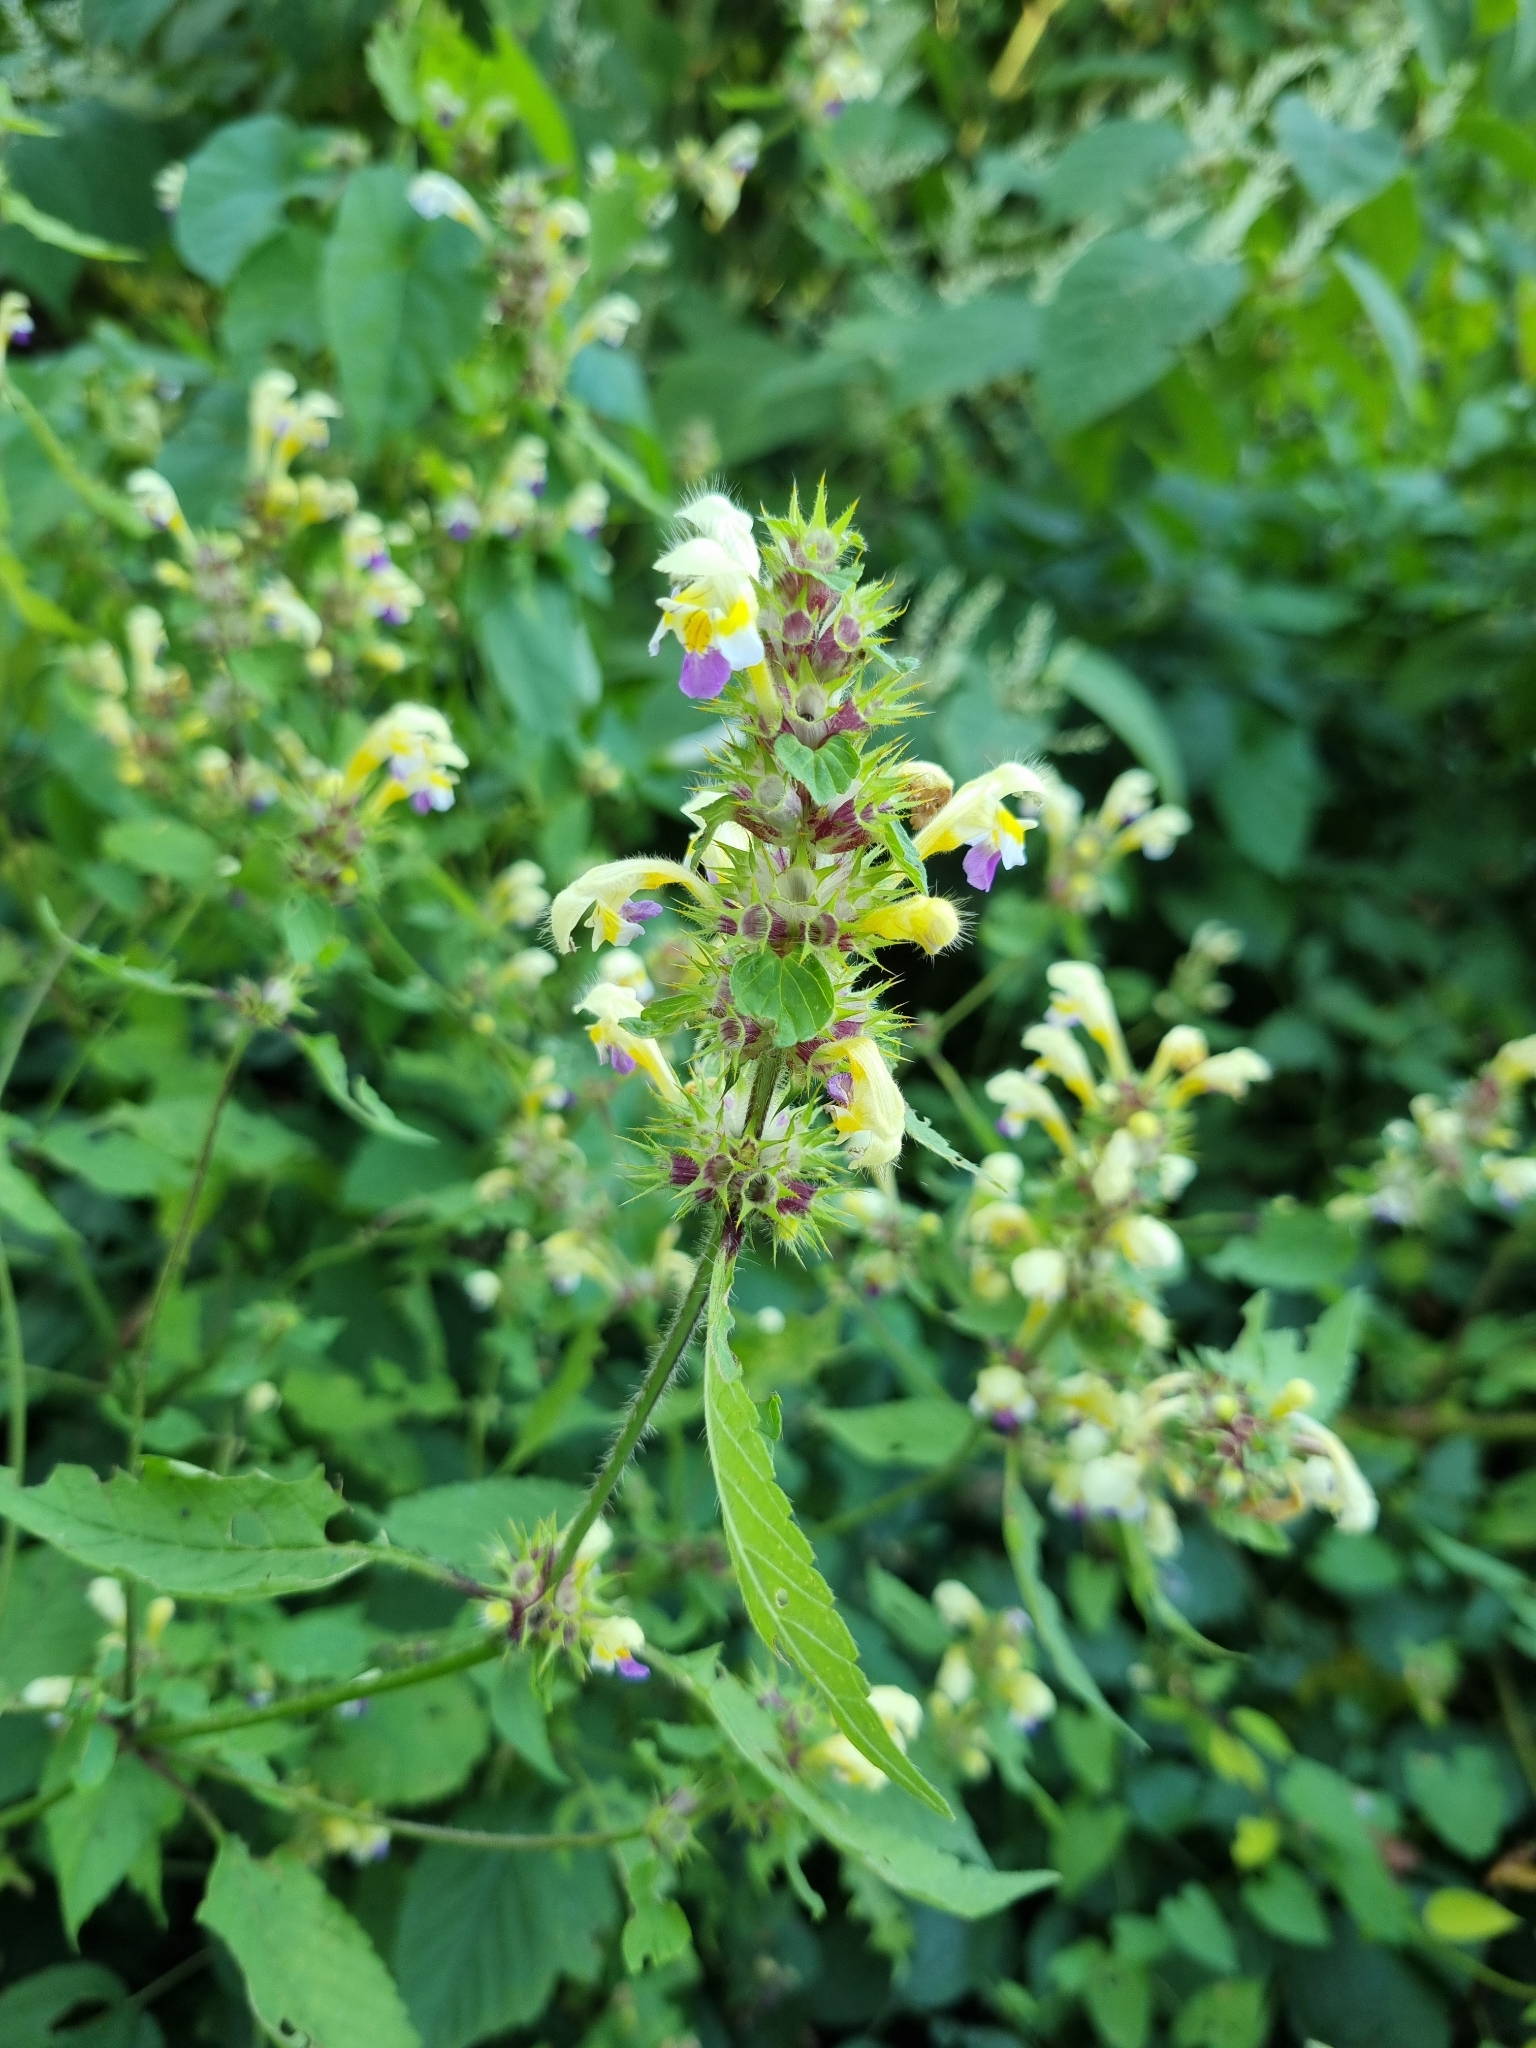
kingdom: Plantae
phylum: Tracheophyta
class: Magnoliopsida
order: Lamiales
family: Lamiaceae
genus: Galeopsis
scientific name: Galeopsis speciosa
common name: Large-flowered hemp-nettle
